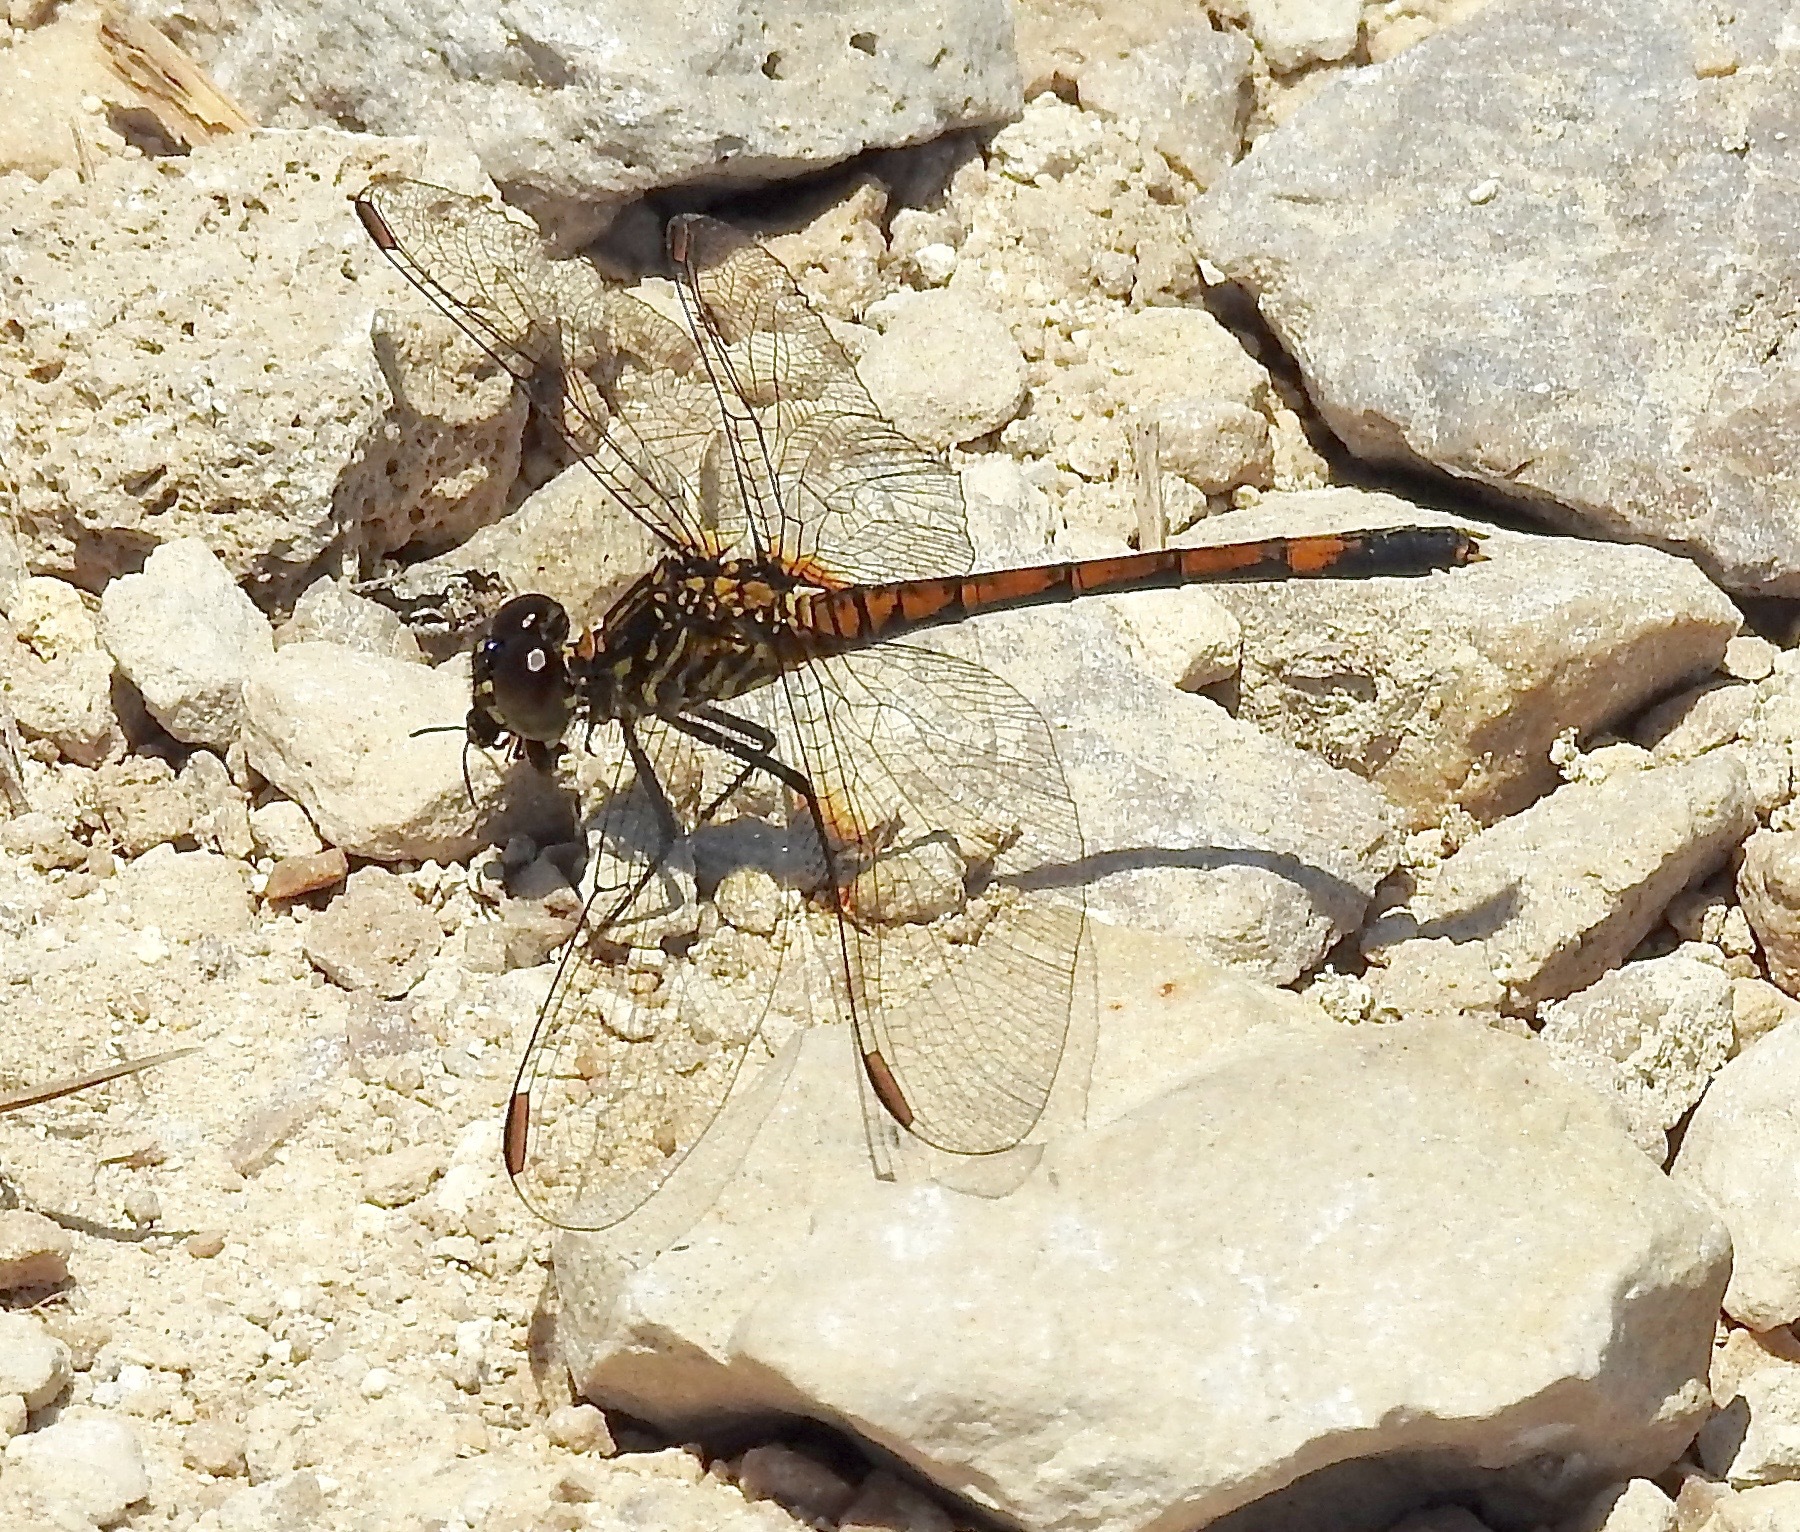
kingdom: Animalia
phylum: Arthropoda
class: Insecta
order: Odonata
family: Libellulidae
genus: Erythrodiplax
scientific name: Erythrodiplax berenice
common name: Seaside dragonlet
